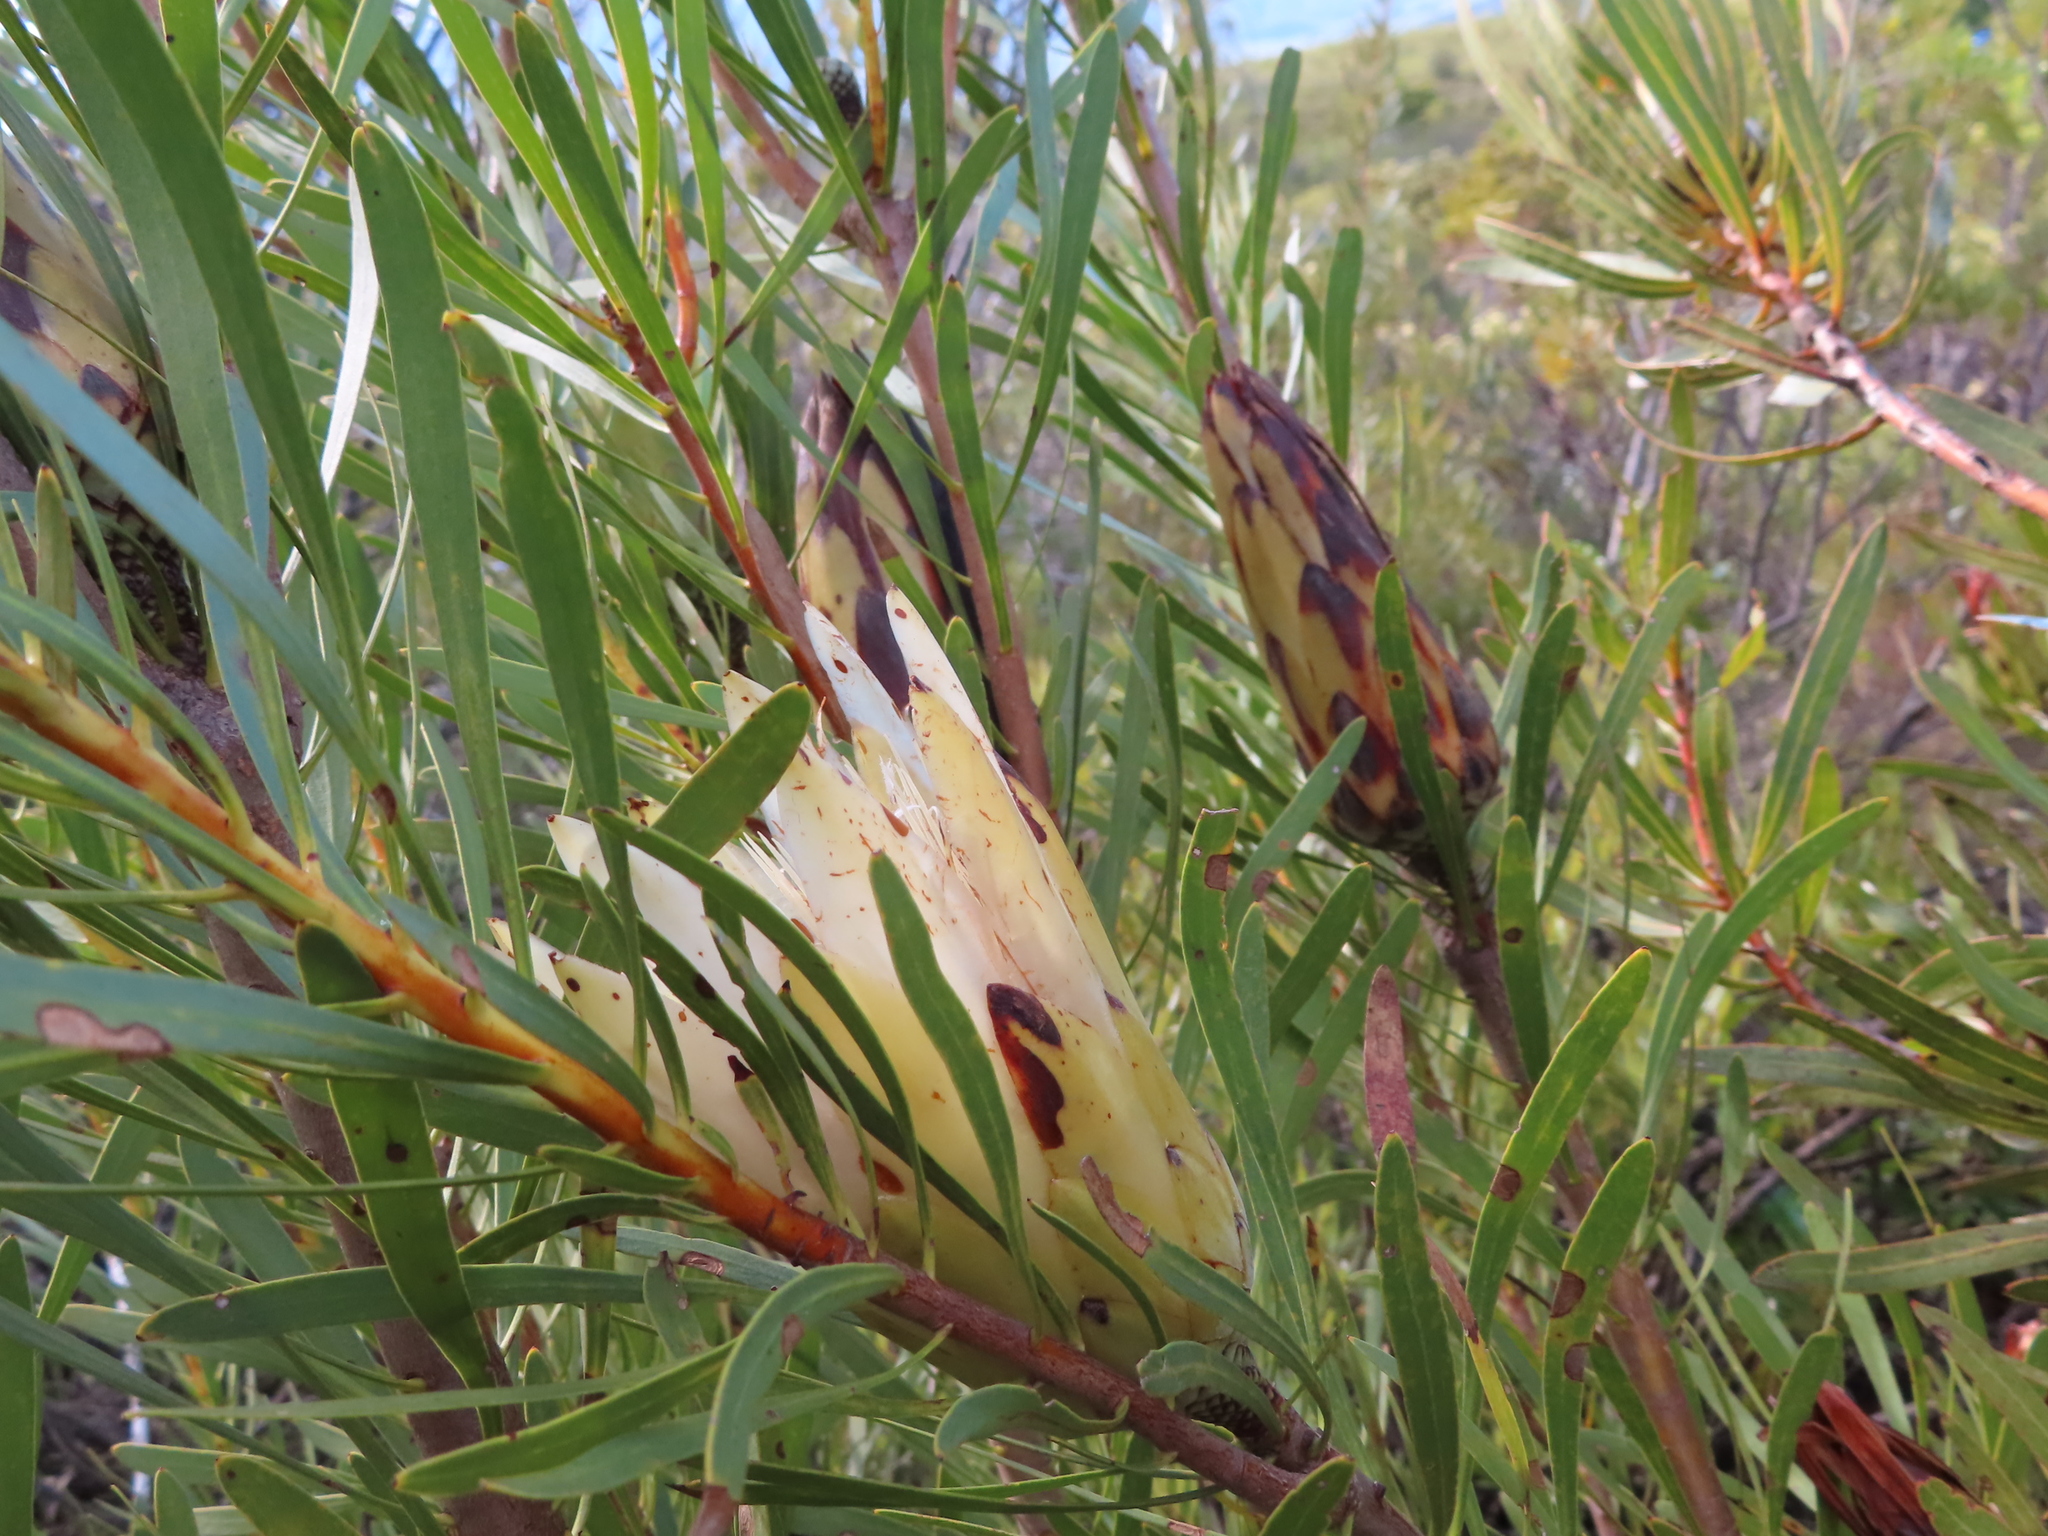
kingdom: Plantae
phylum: Tracheophyta
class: Magnoliopsida
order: Proteales
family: Proteaceae
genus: Protea
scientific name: Protea repens
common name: Sugarbush
